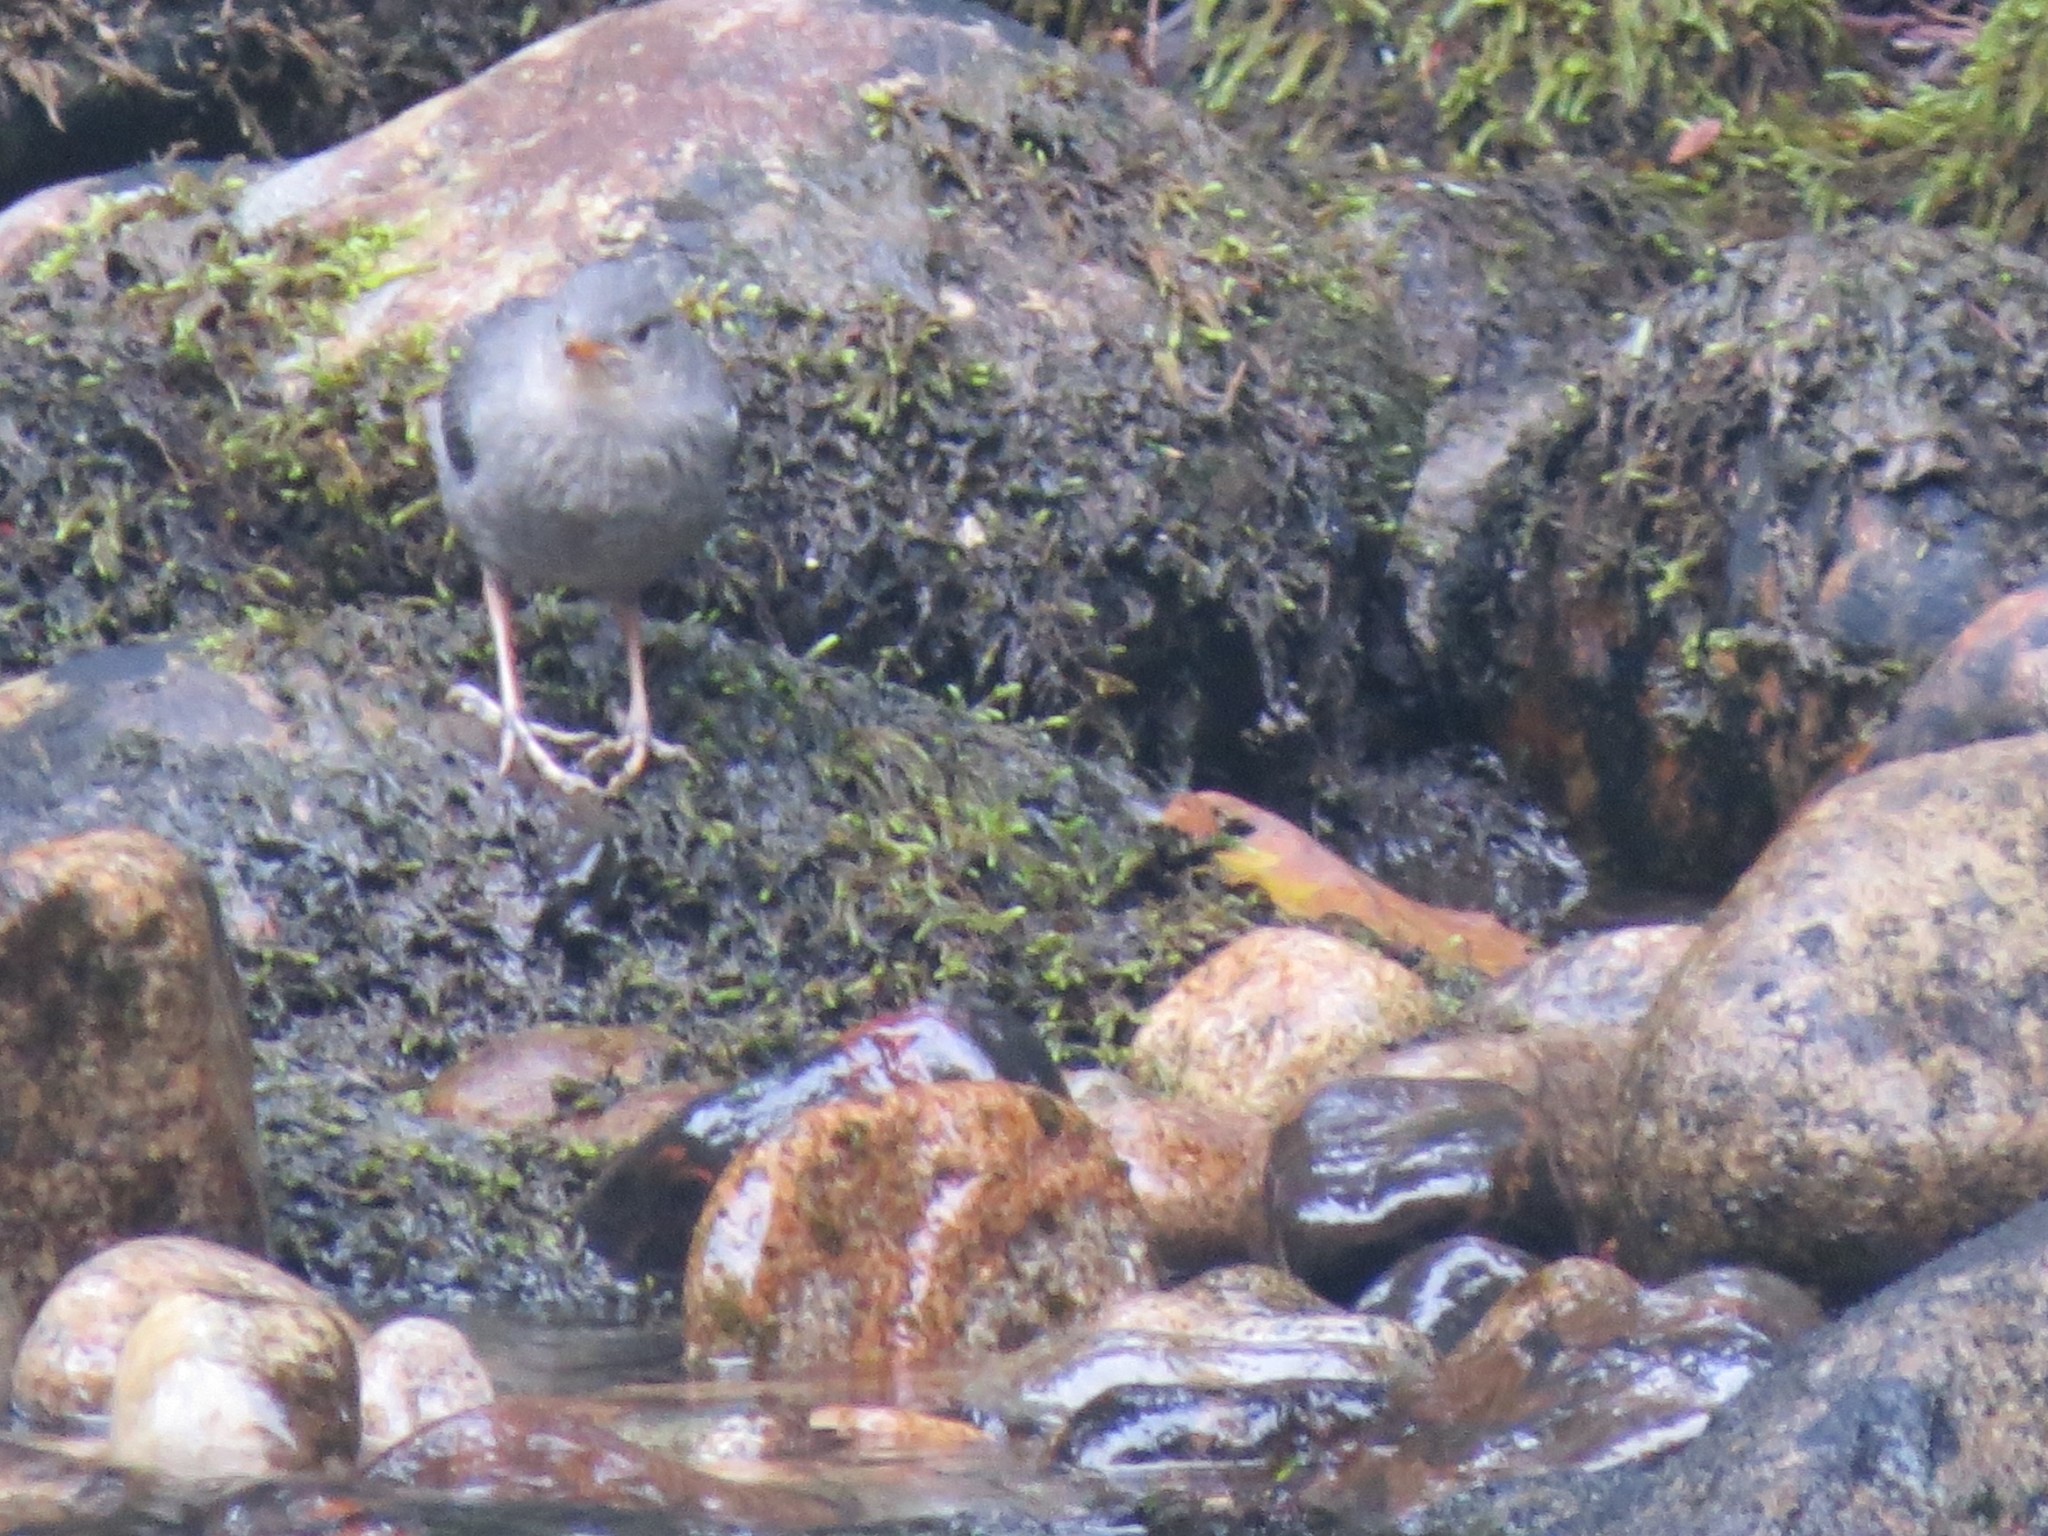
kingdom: Animalia
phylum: Chordata
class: Aves
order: Passeriformes
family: Cinclidae
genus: Cinclus
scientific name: Cinclus mexicanus
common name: American dipper
